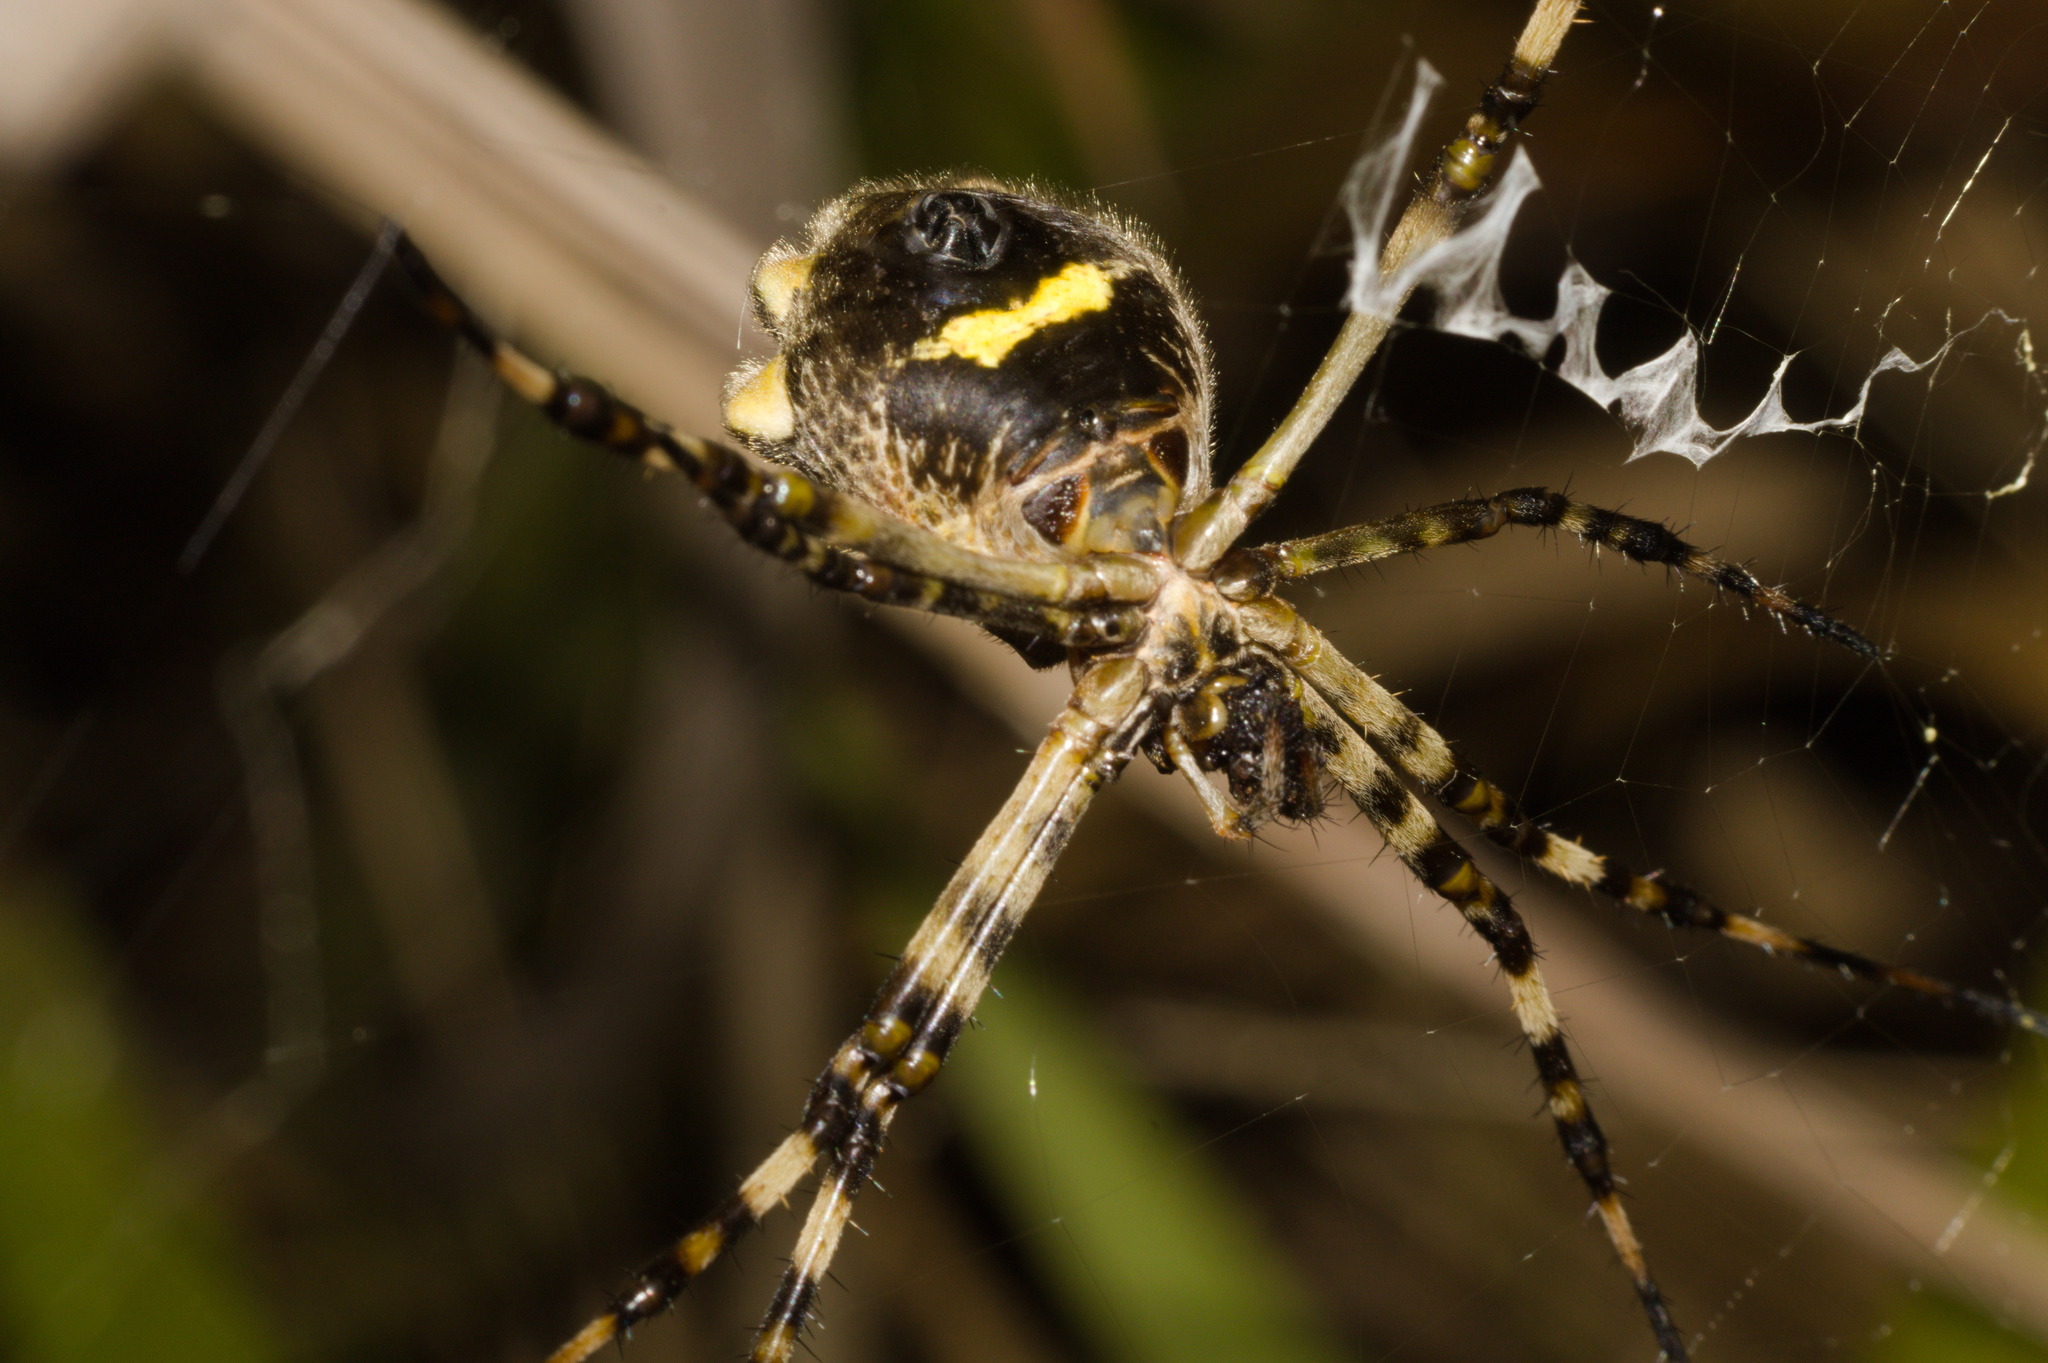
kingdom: Animalia
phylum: Arthropoda
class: Arachnida
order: Araneae
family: Araneidae
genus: Argiope
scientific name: Argiope argentata
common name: Orb weavers
